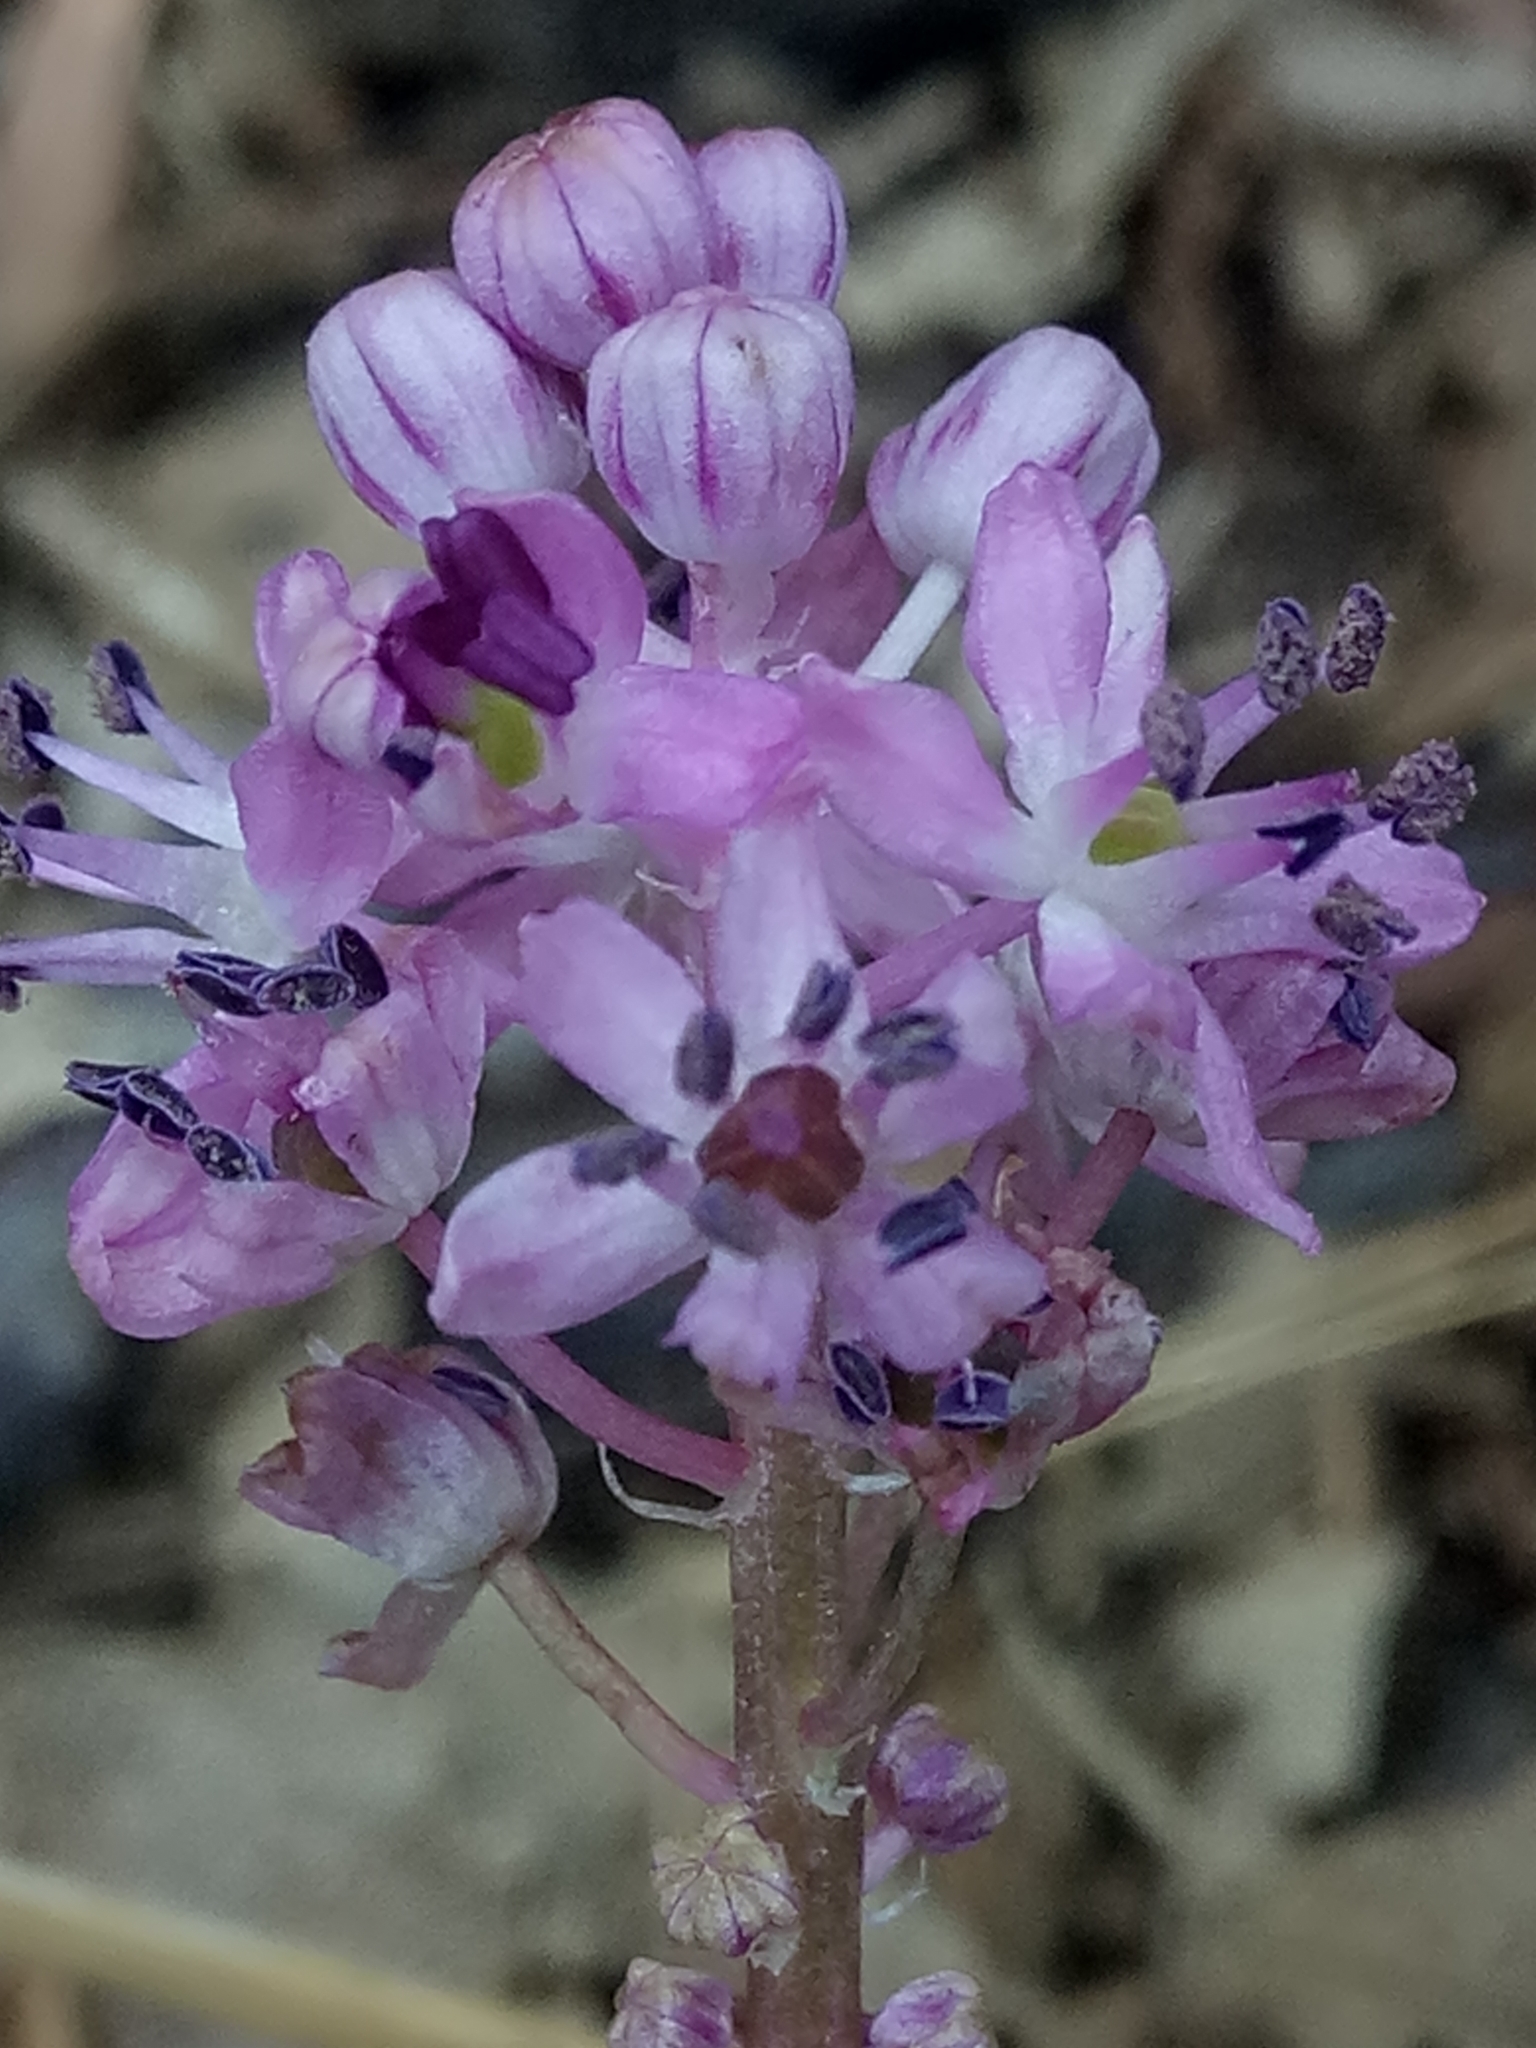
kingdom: Plantae
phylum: Tracheophyta
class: Liliopsida
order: Asparagales
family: Asparagaceae
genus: Barnardia
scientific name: Barnardia numidica
